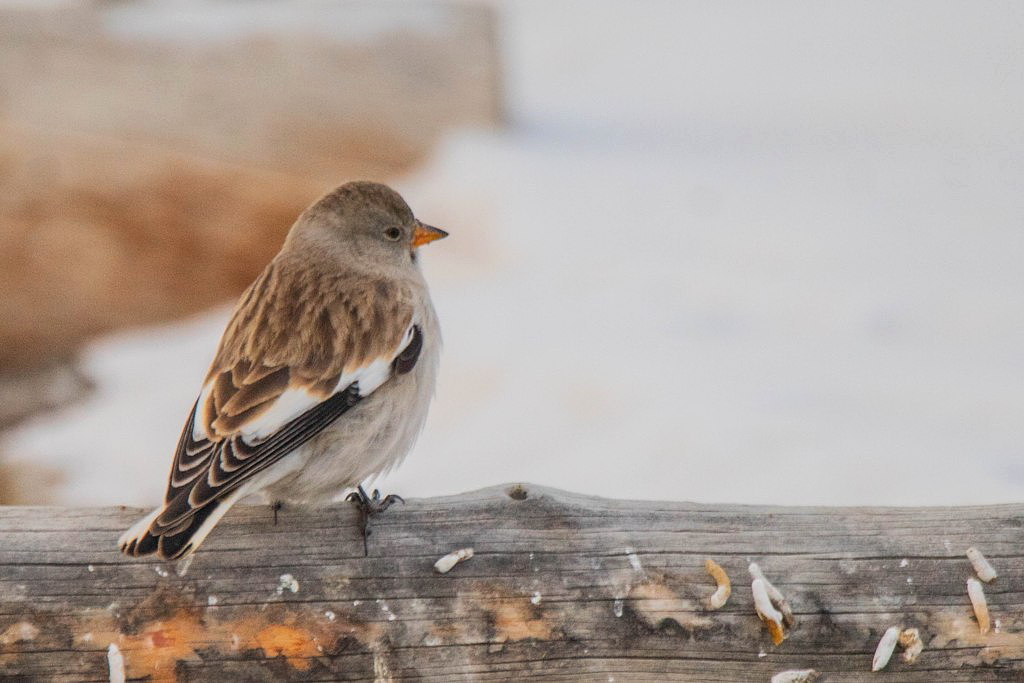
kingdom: Animalia
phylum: Chordata
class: Aves
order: Passeriformes
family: Passeridae
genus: Montifringilla
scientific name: Montifringilla nivalis
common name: White-winged snowfinch
